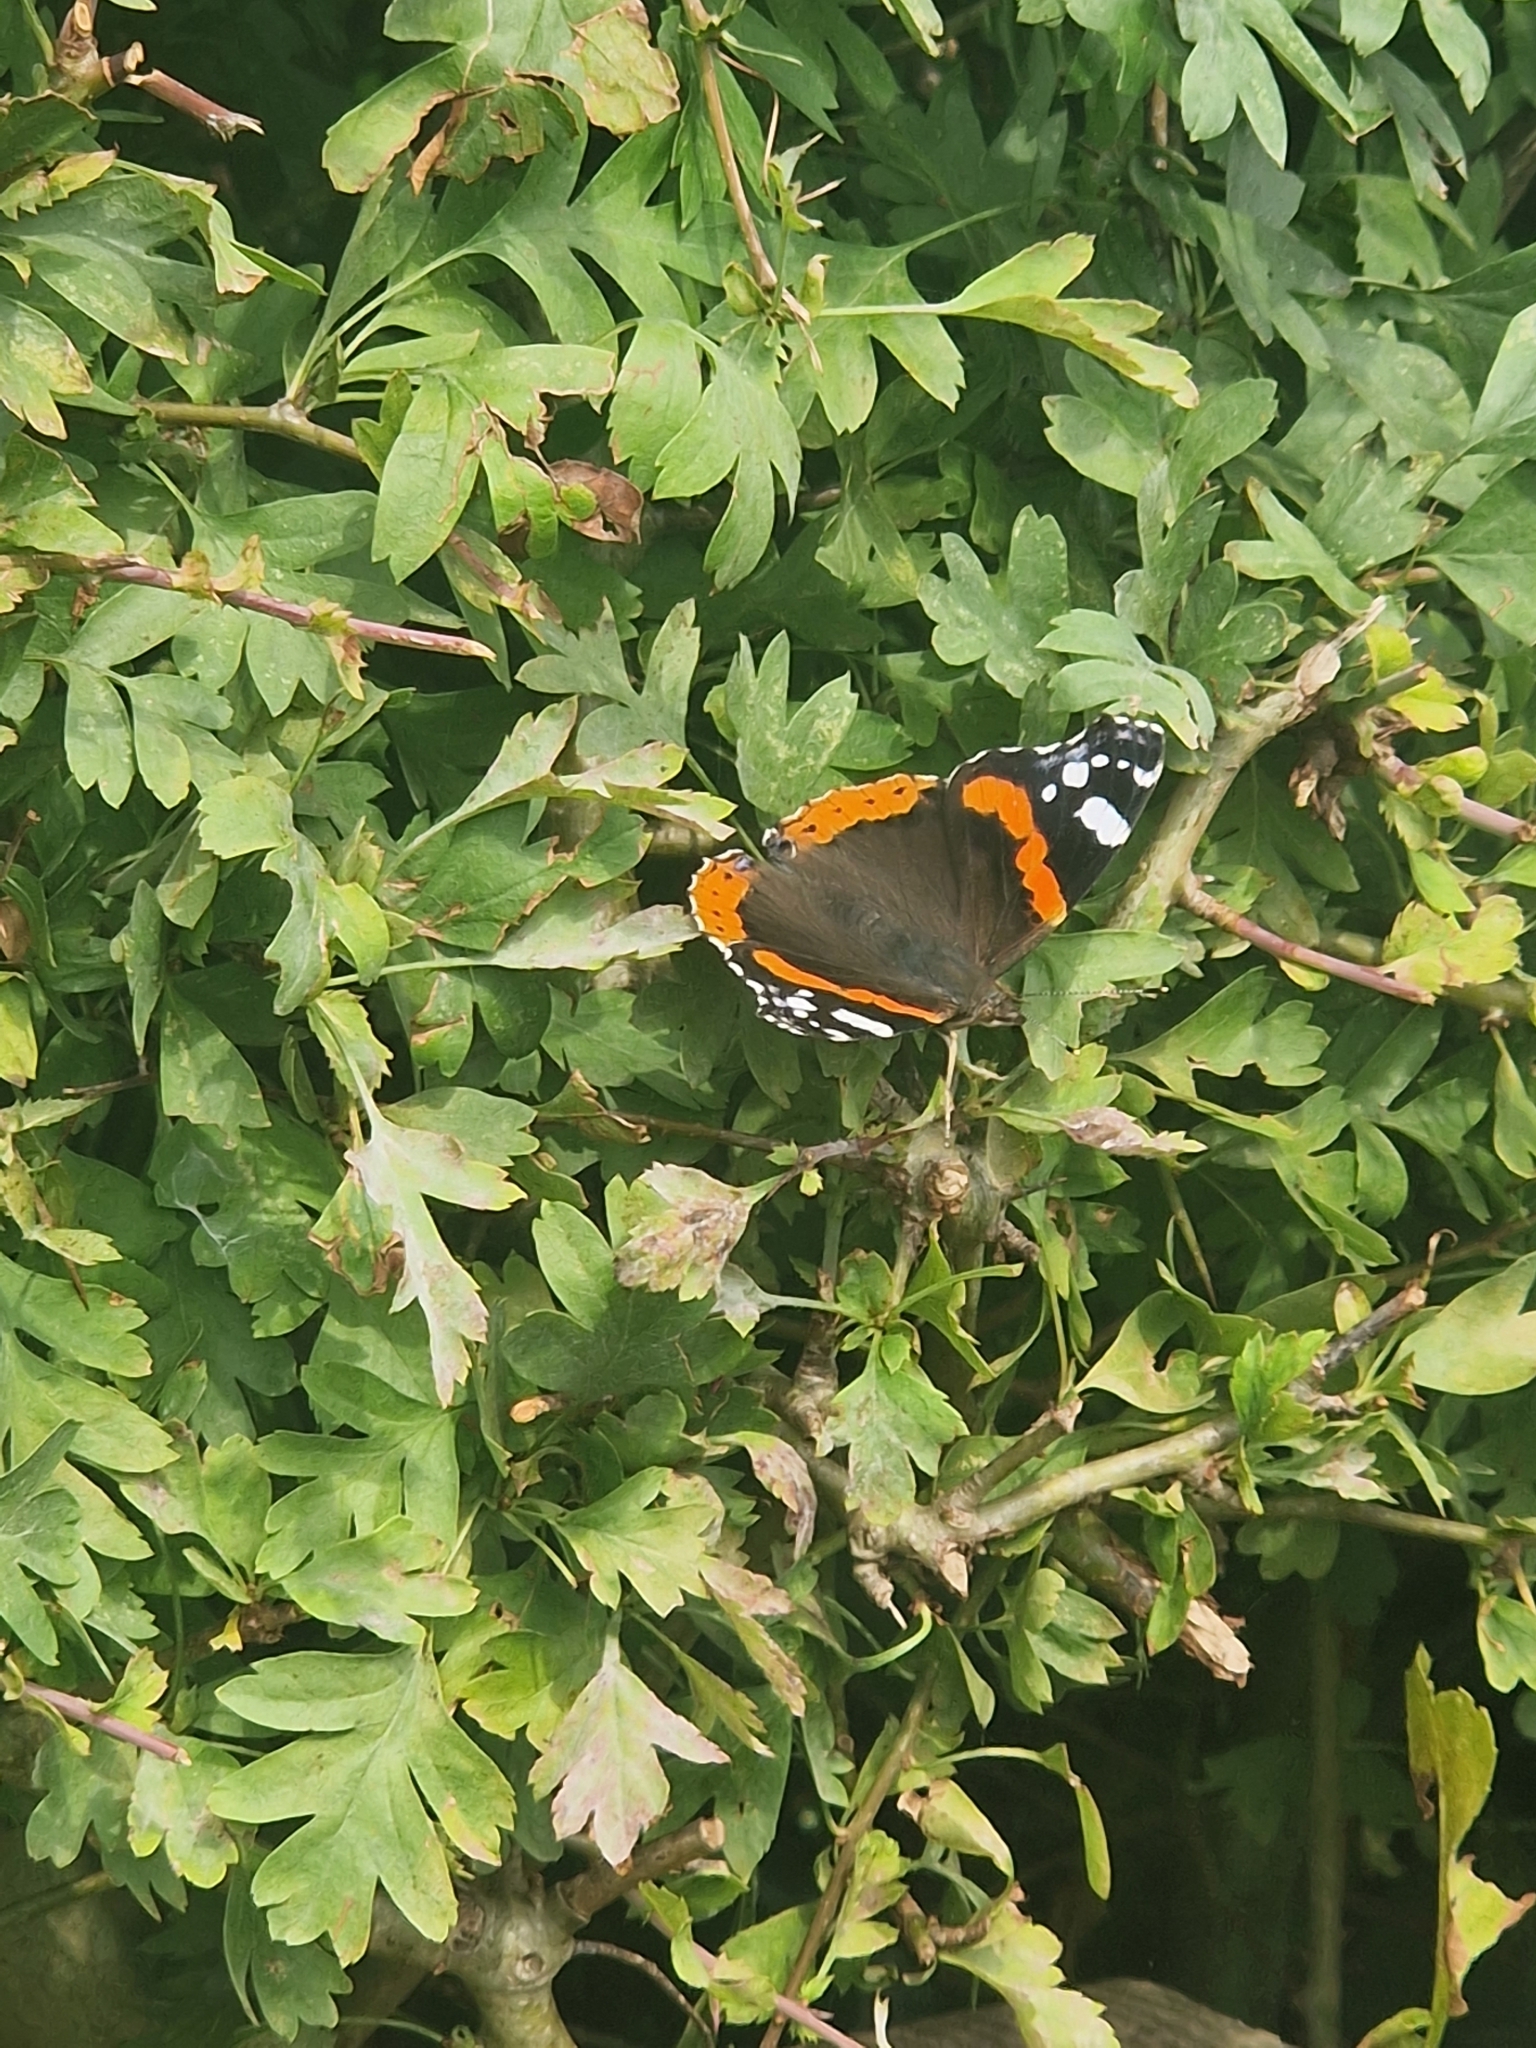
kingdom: Animalia
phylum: Arthropoda
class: Insecta
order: Lepidoptera
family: Nymphalidae
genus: Vanessa
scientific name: Vanessa atalanta
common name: Red admiral
